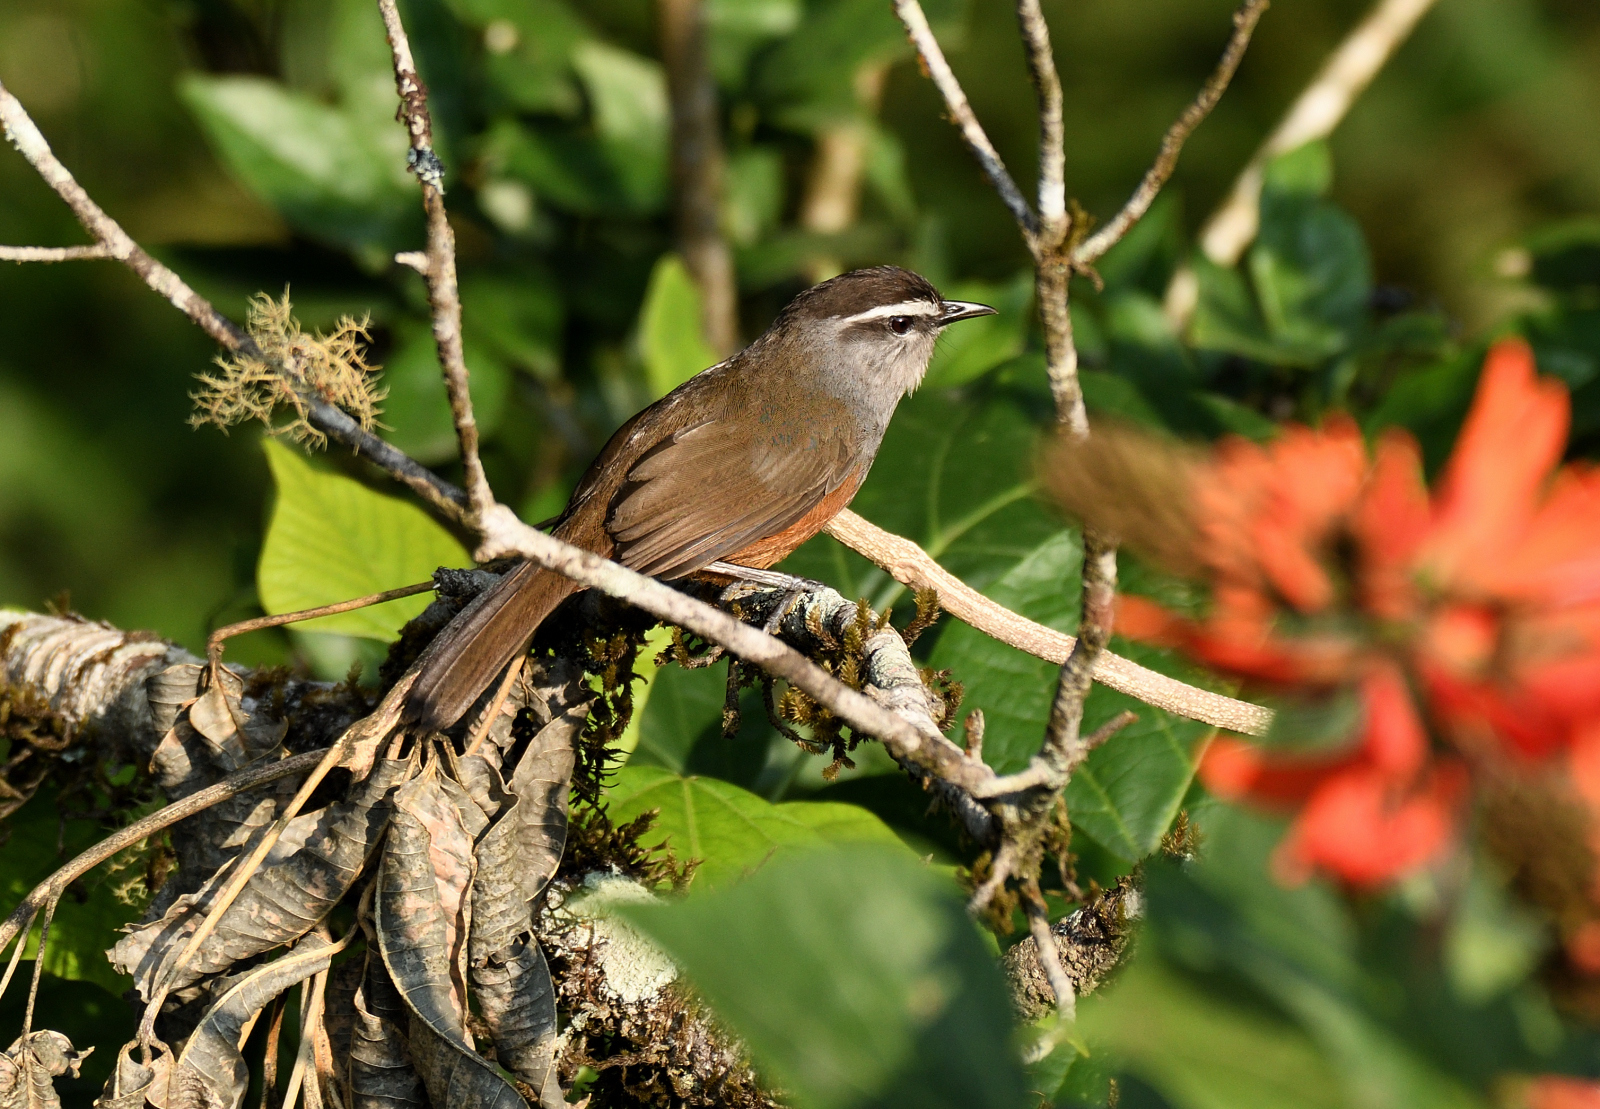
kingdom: Animalia
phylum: Chordata
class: Aves
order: Passeriformes
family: Leiothrichidae
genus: Trochalopteron
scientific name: Trochalopteron fairbanki
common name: Kerala laughingthrush
